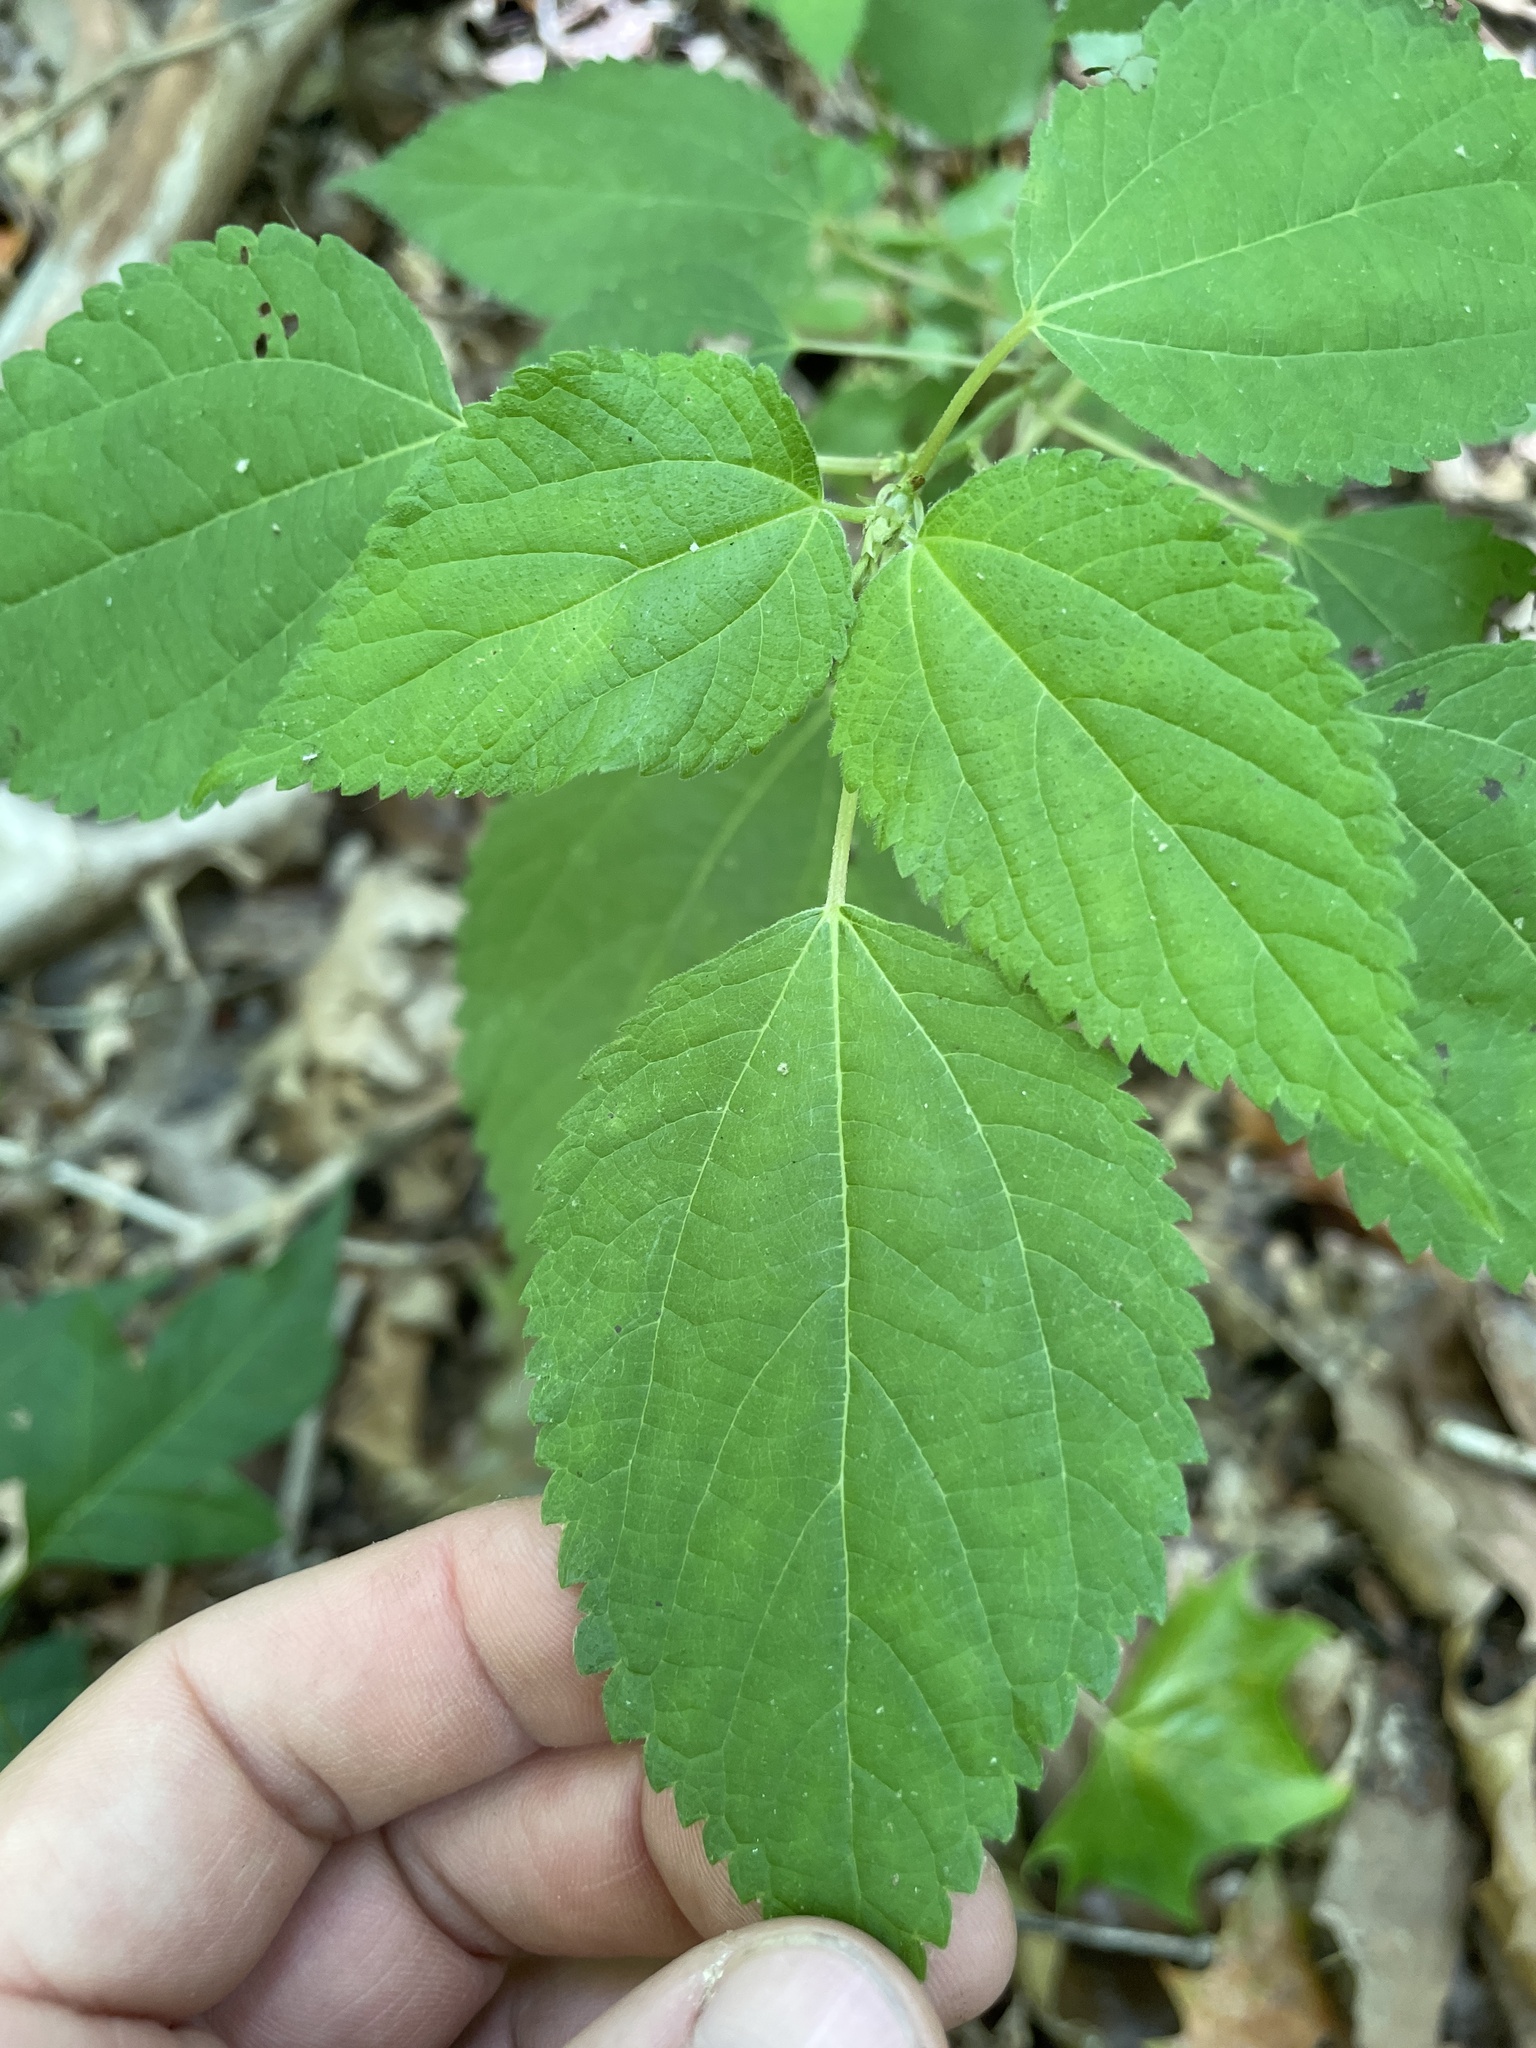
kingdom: Plantae
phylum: Tracheophyta
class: Magnoliopsida
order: Rosales
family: Urticaceae
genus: Boehmeria
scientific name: Boehmeria cylindrica
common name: Bog-hemp
